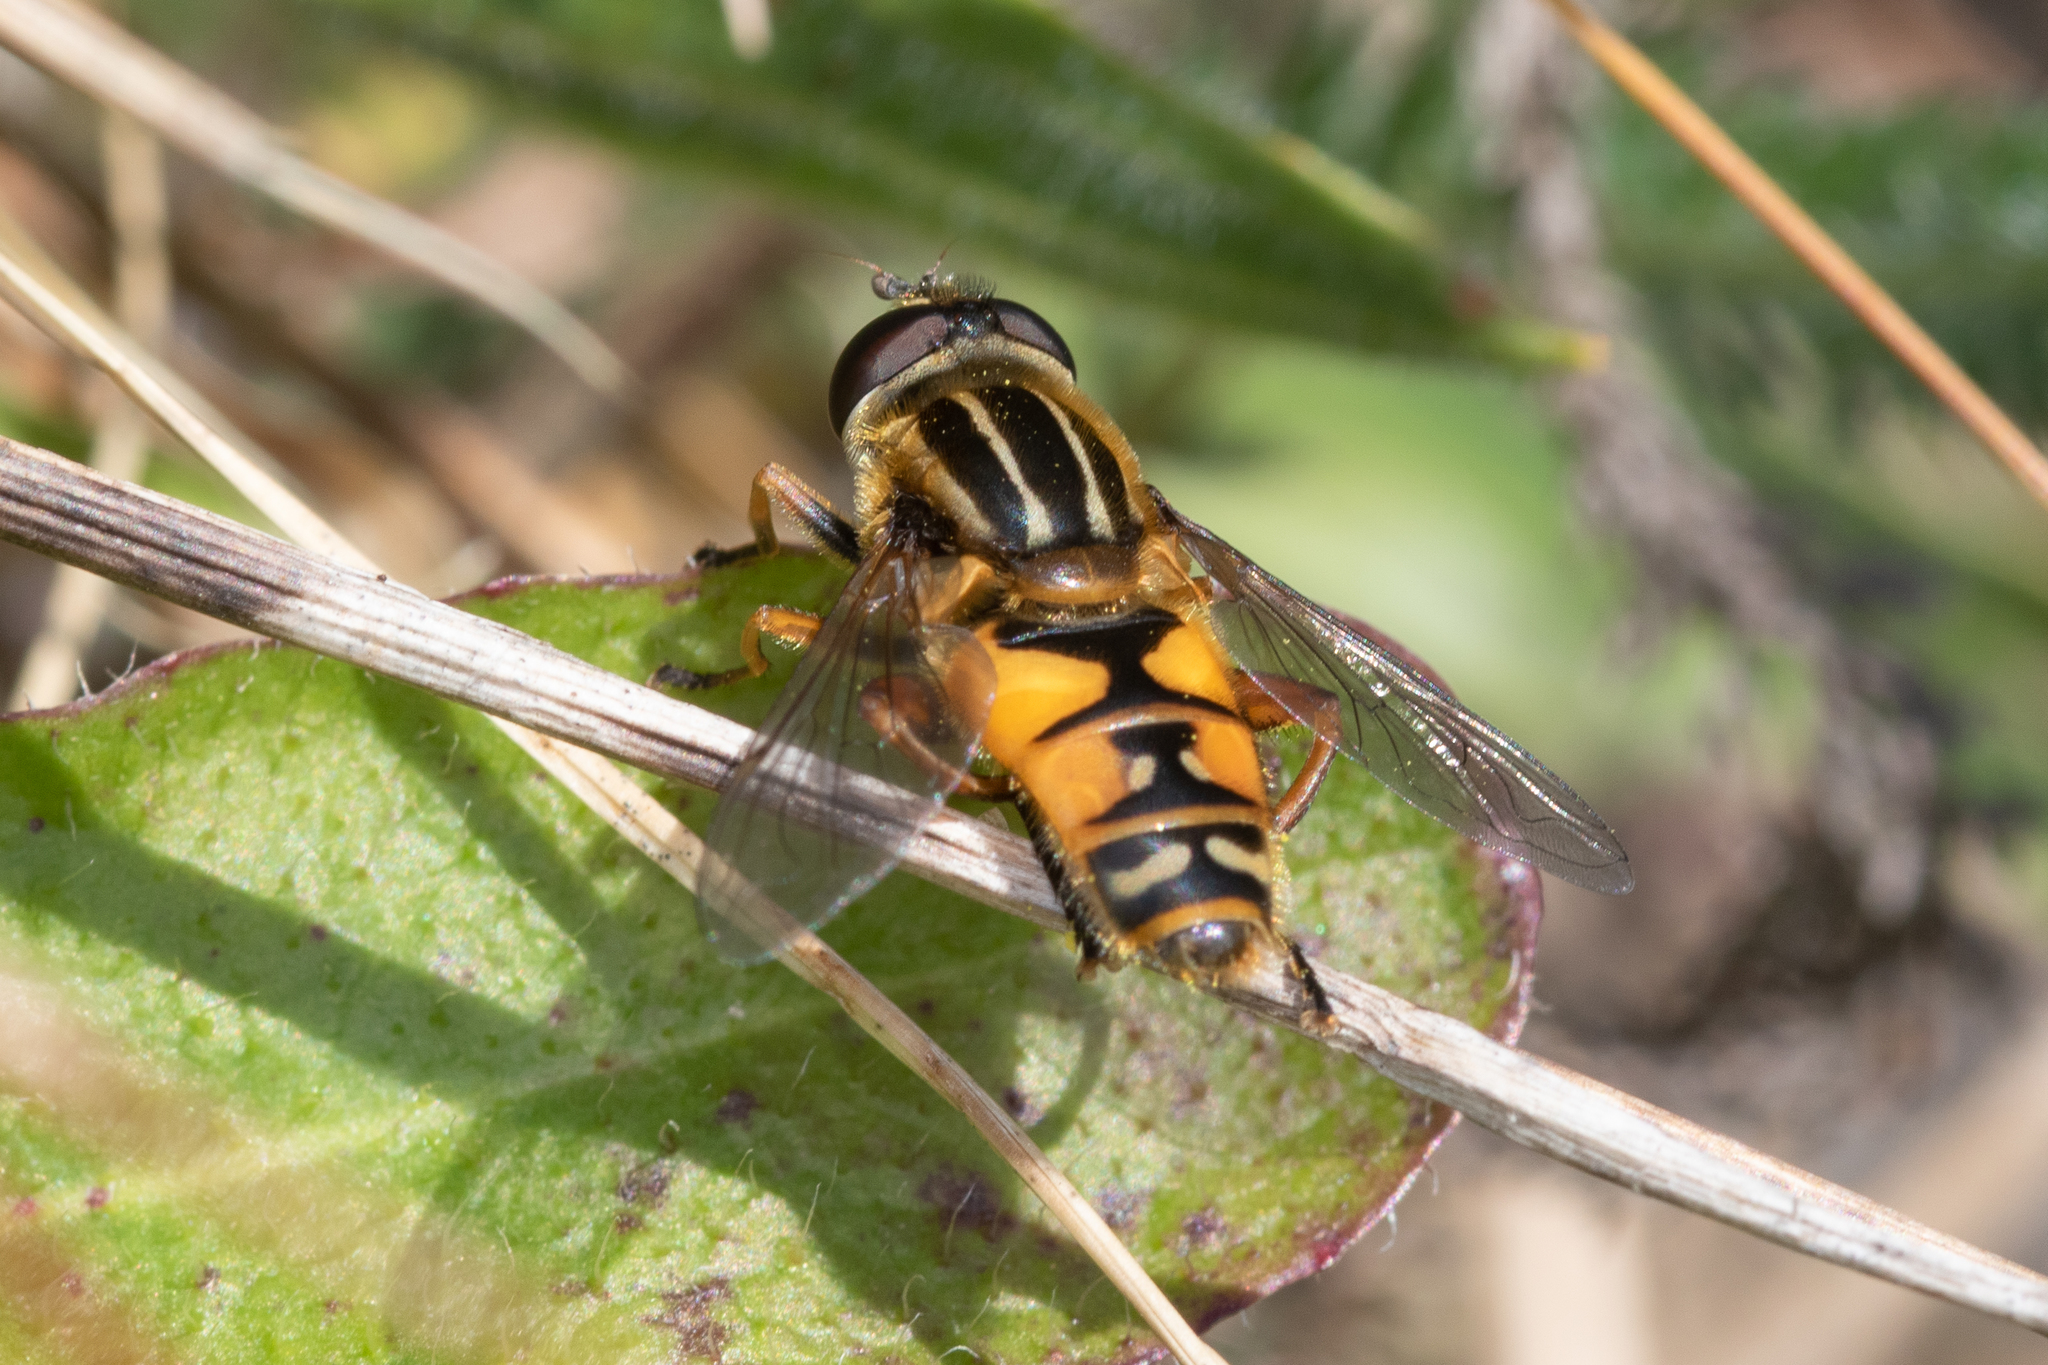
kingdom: Animalia
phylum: Arthropoda
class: Insecta
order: Diptera
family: Syrphidae
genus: Helophilus
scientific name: Helophilus pendulus
